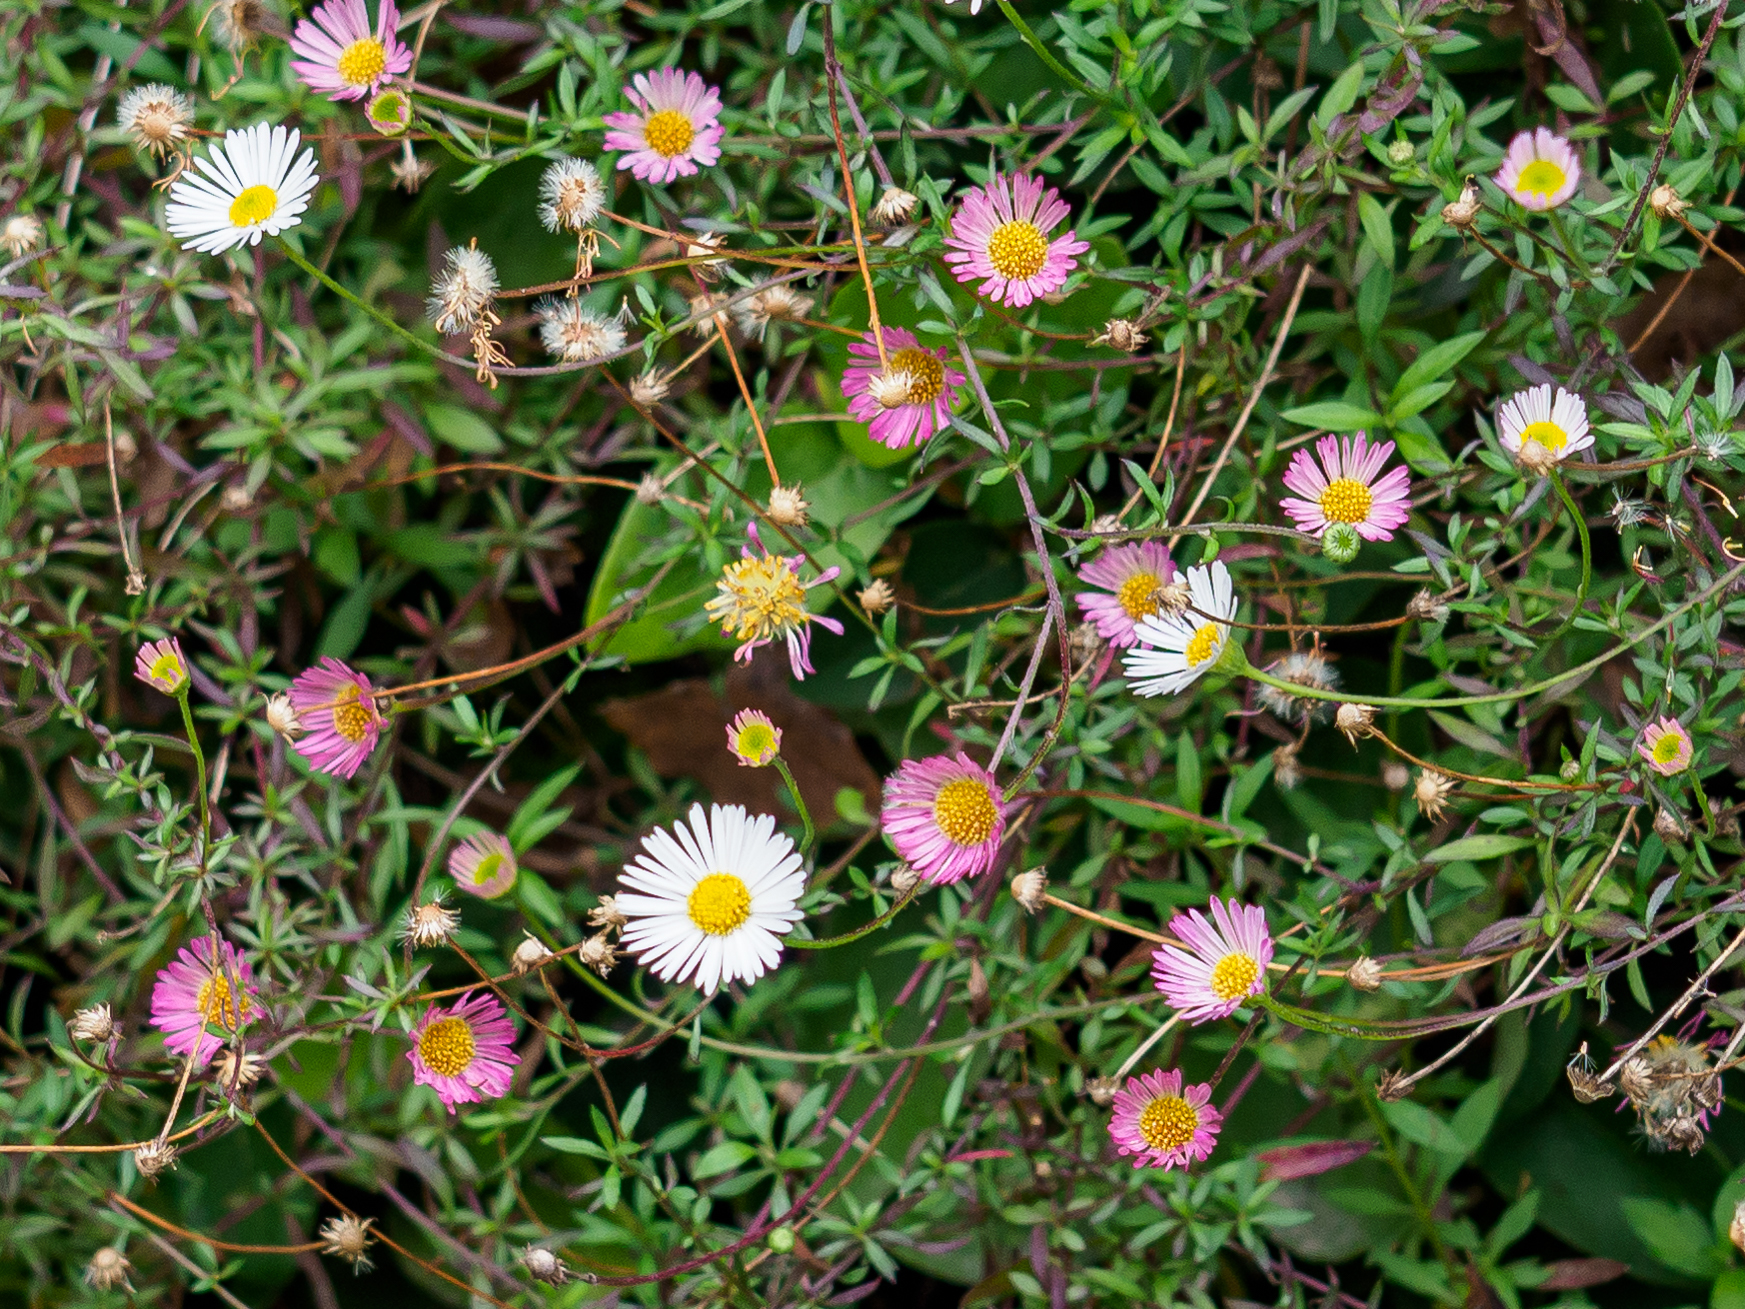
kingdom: Plantae
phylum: Tracheophyta
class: Magnoliopsida
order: Asterales
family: Asteraceae
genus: Erigeron
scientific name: Erigeron karvinskianus
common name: Mexican fleabane
